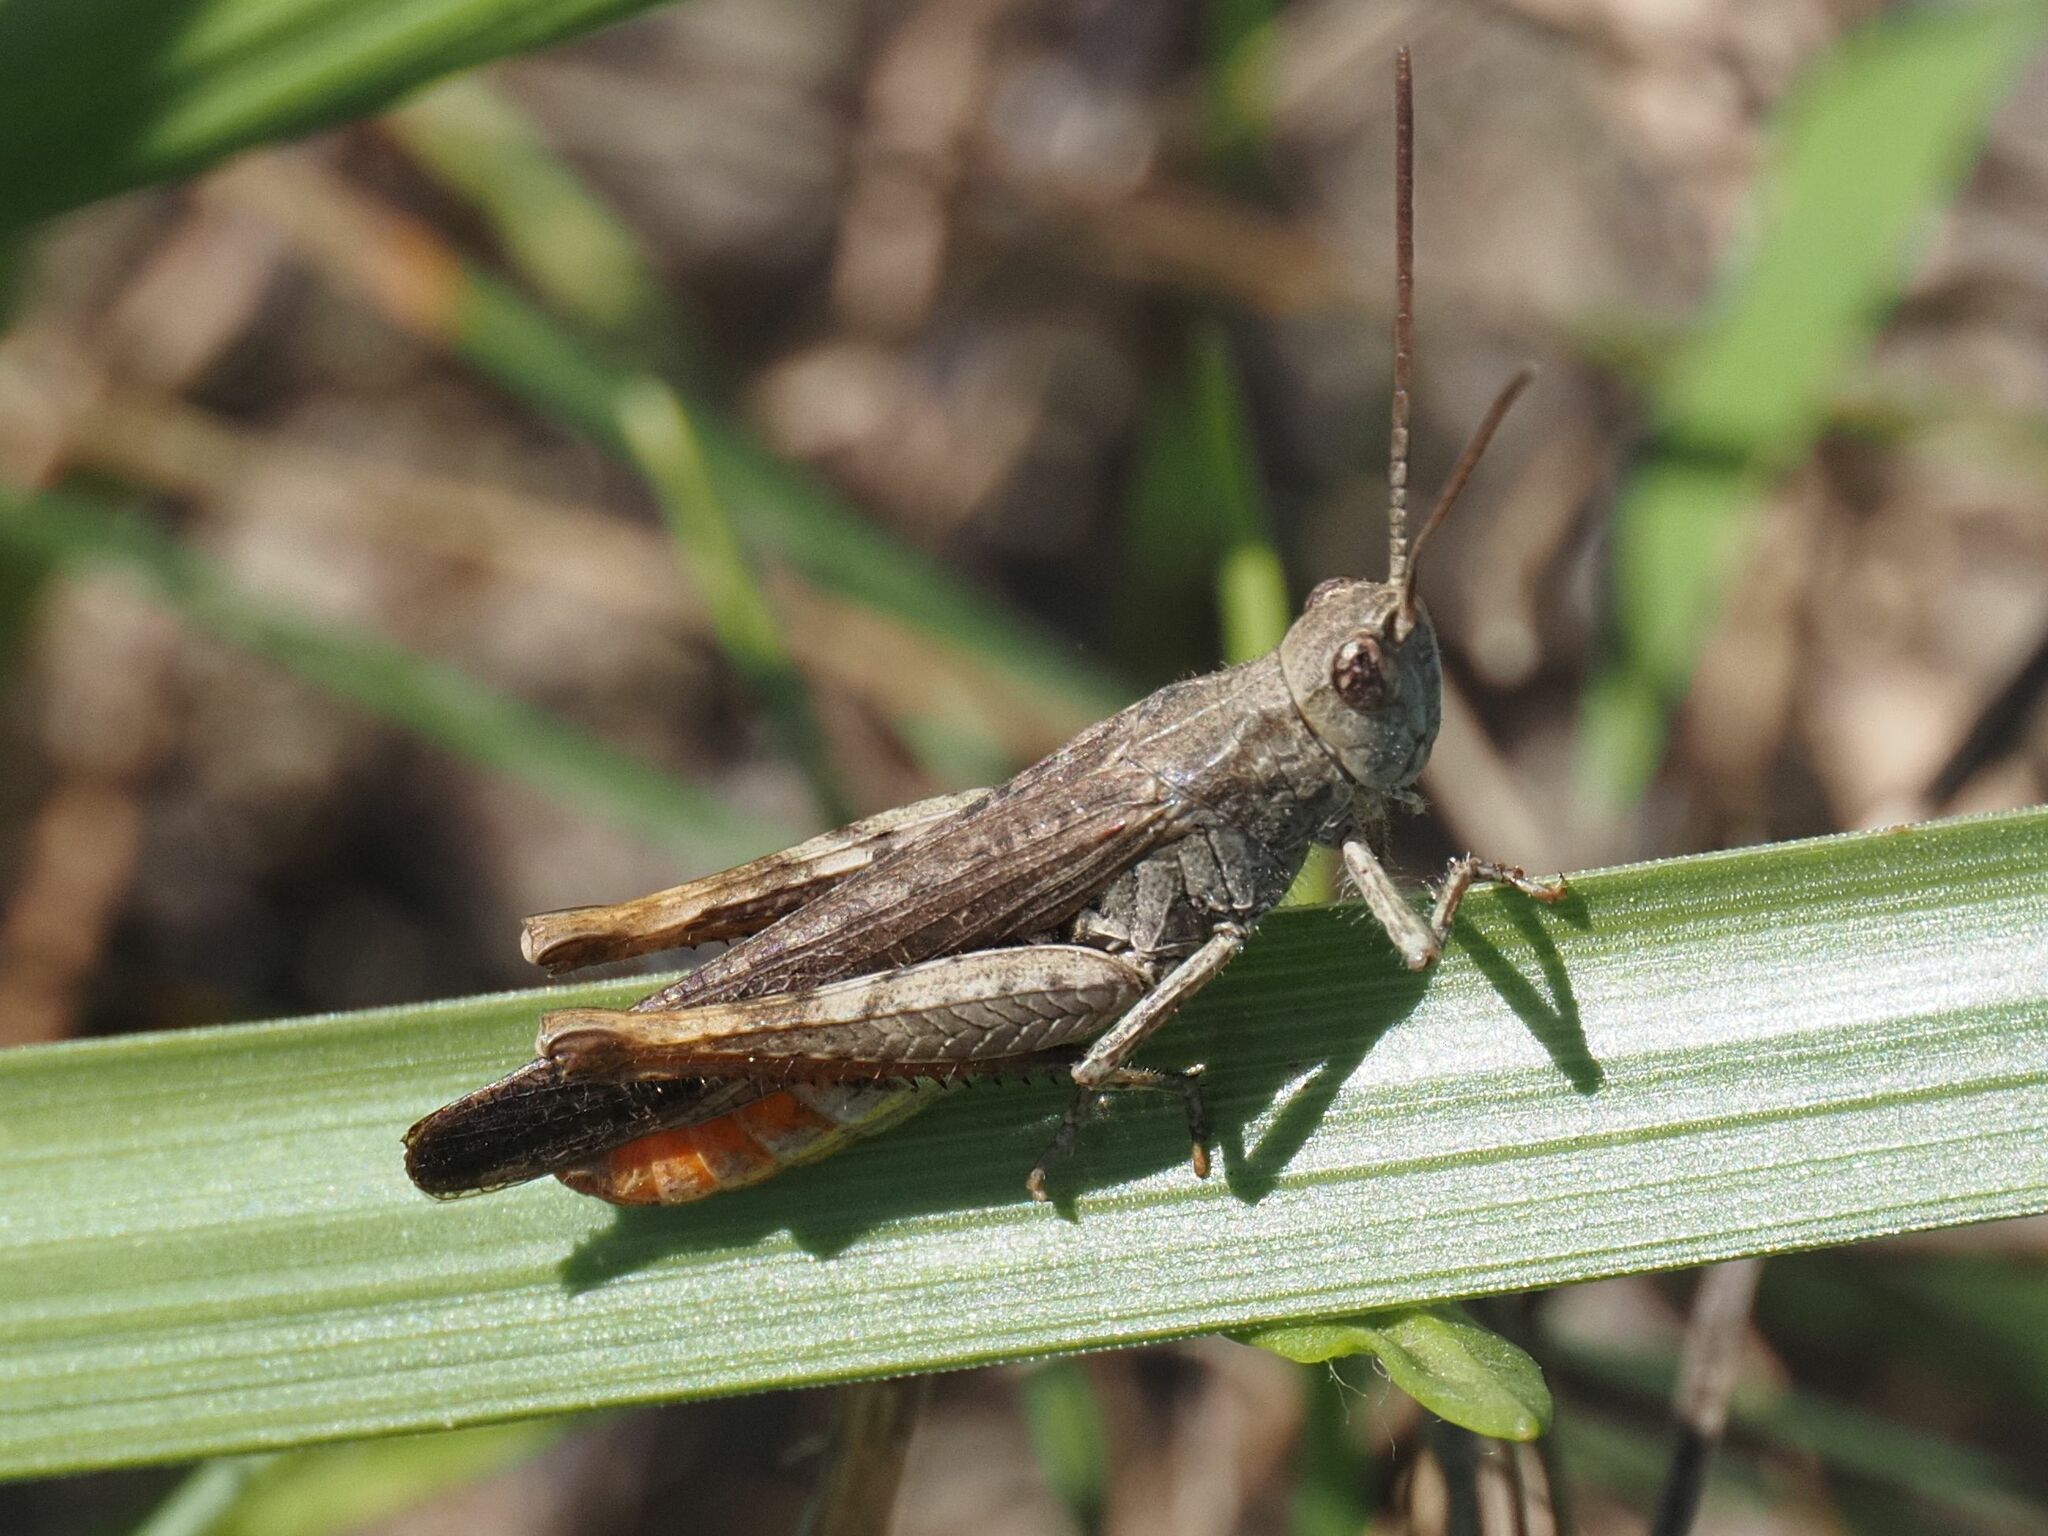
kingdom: Animalia
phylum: Arthropoda
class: Insecta
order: Orthoptera
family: Acrididae
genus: Chorthippus
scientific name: Chorthippus brunneus
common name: Field grasshopper
